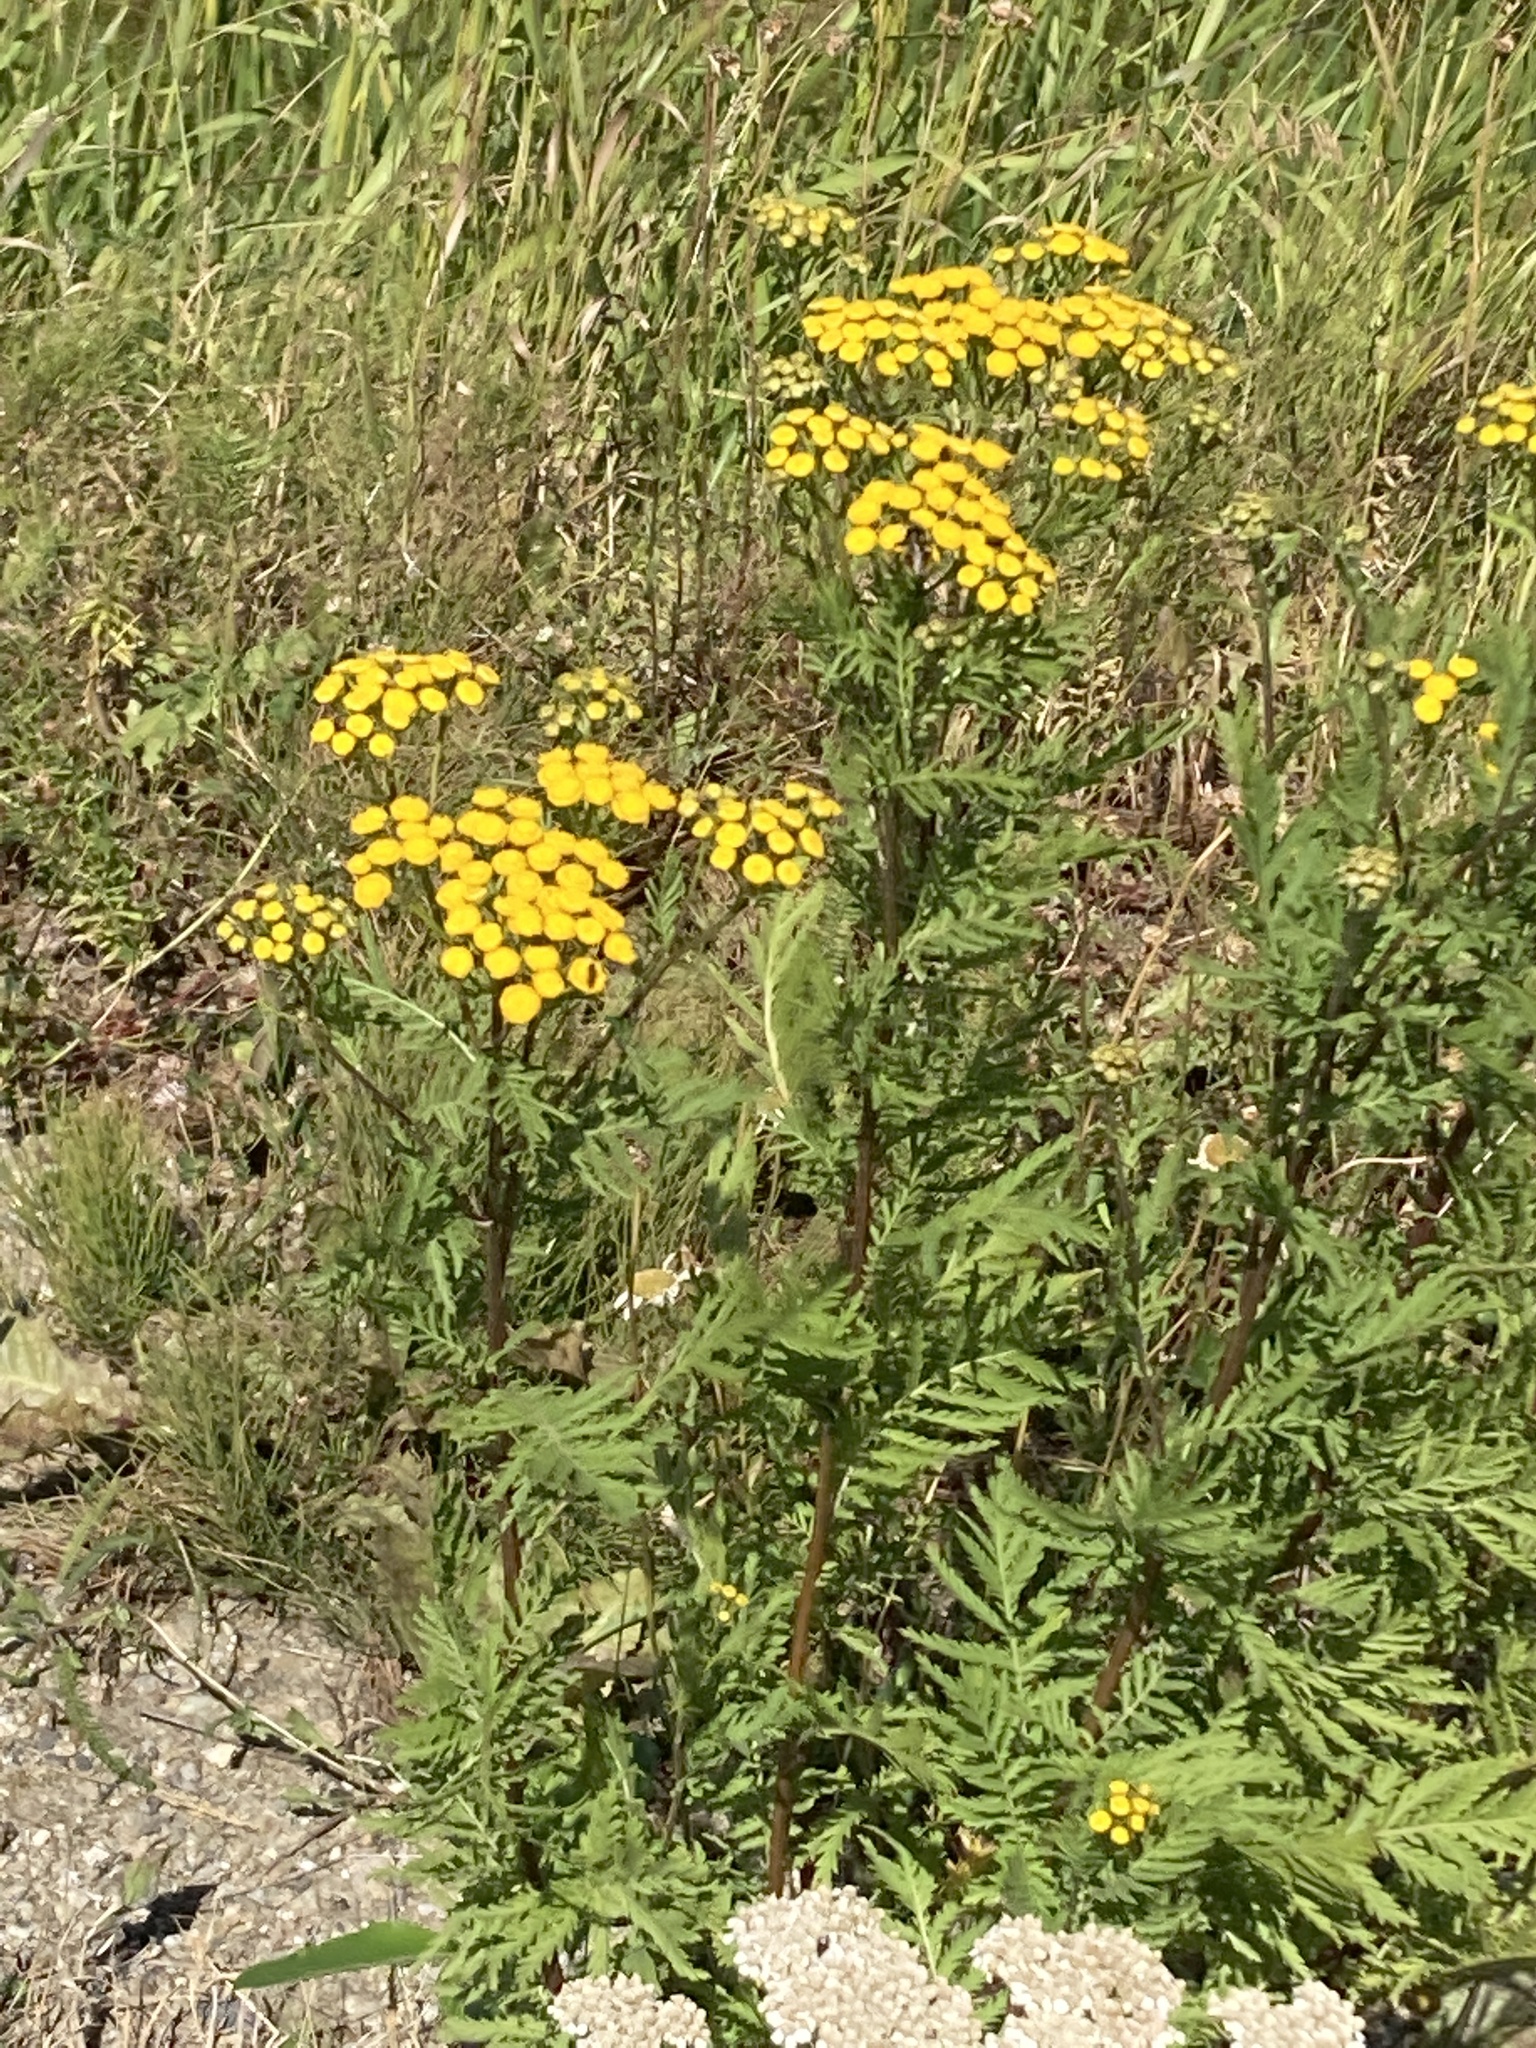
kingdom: Plantae
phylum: Tracheophyta
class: Magnoliopsida
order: Asterales
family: Asteraceae
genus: Tanacetum
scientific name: Tanacetum vulgare
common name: Common tansy
